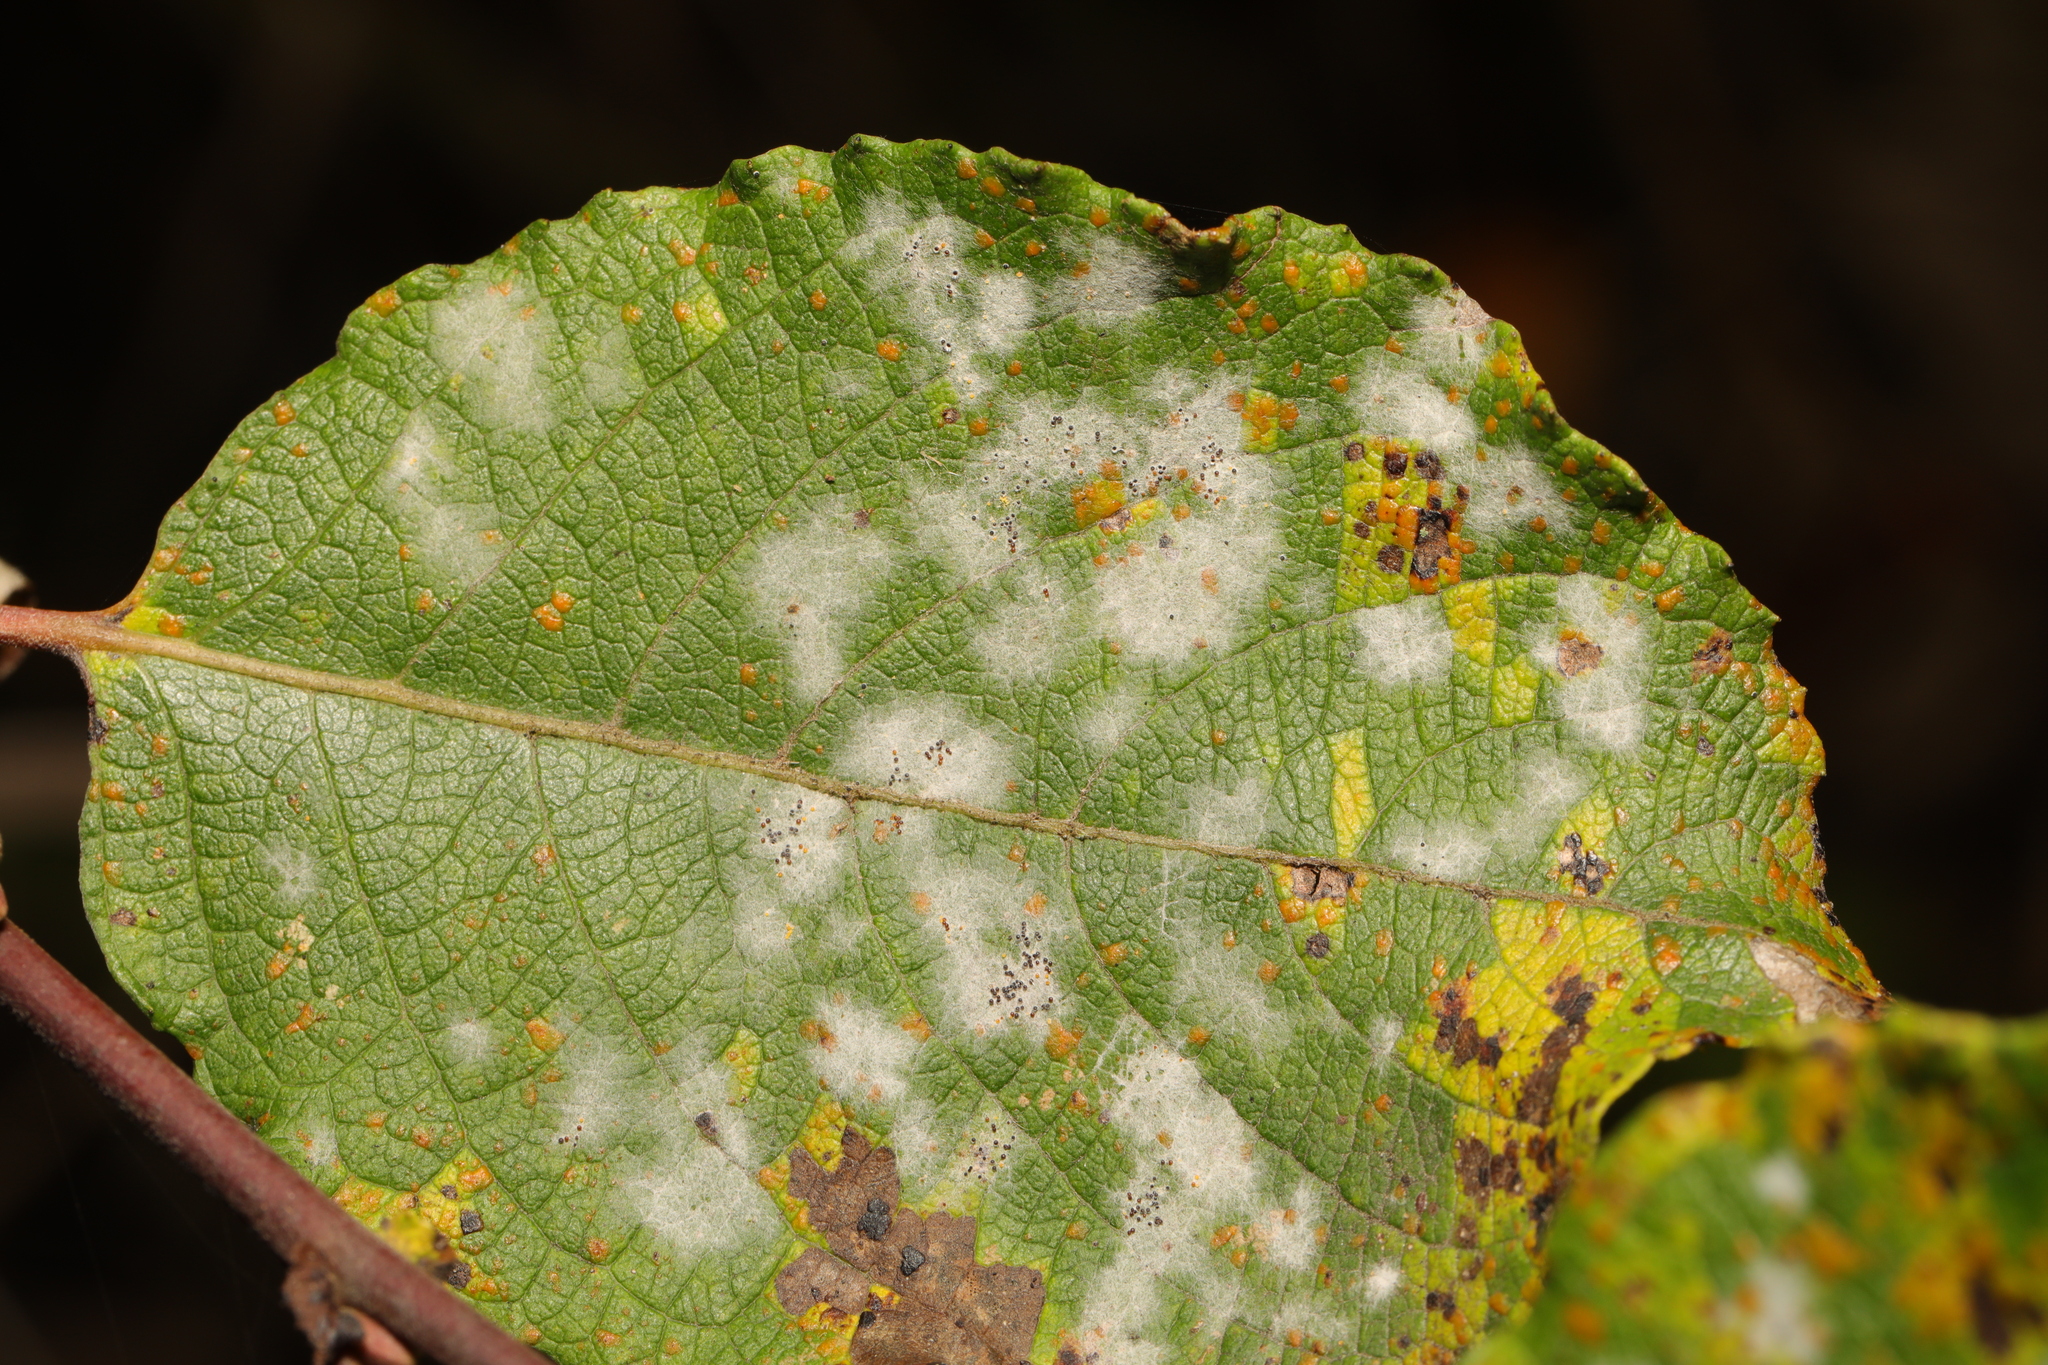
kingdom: Fungi
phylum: Ascomycota
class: Leotiomycetes
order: Helotiales
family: Erysiphaceae
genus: Erysiphe
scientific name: Erysiphe capreae
